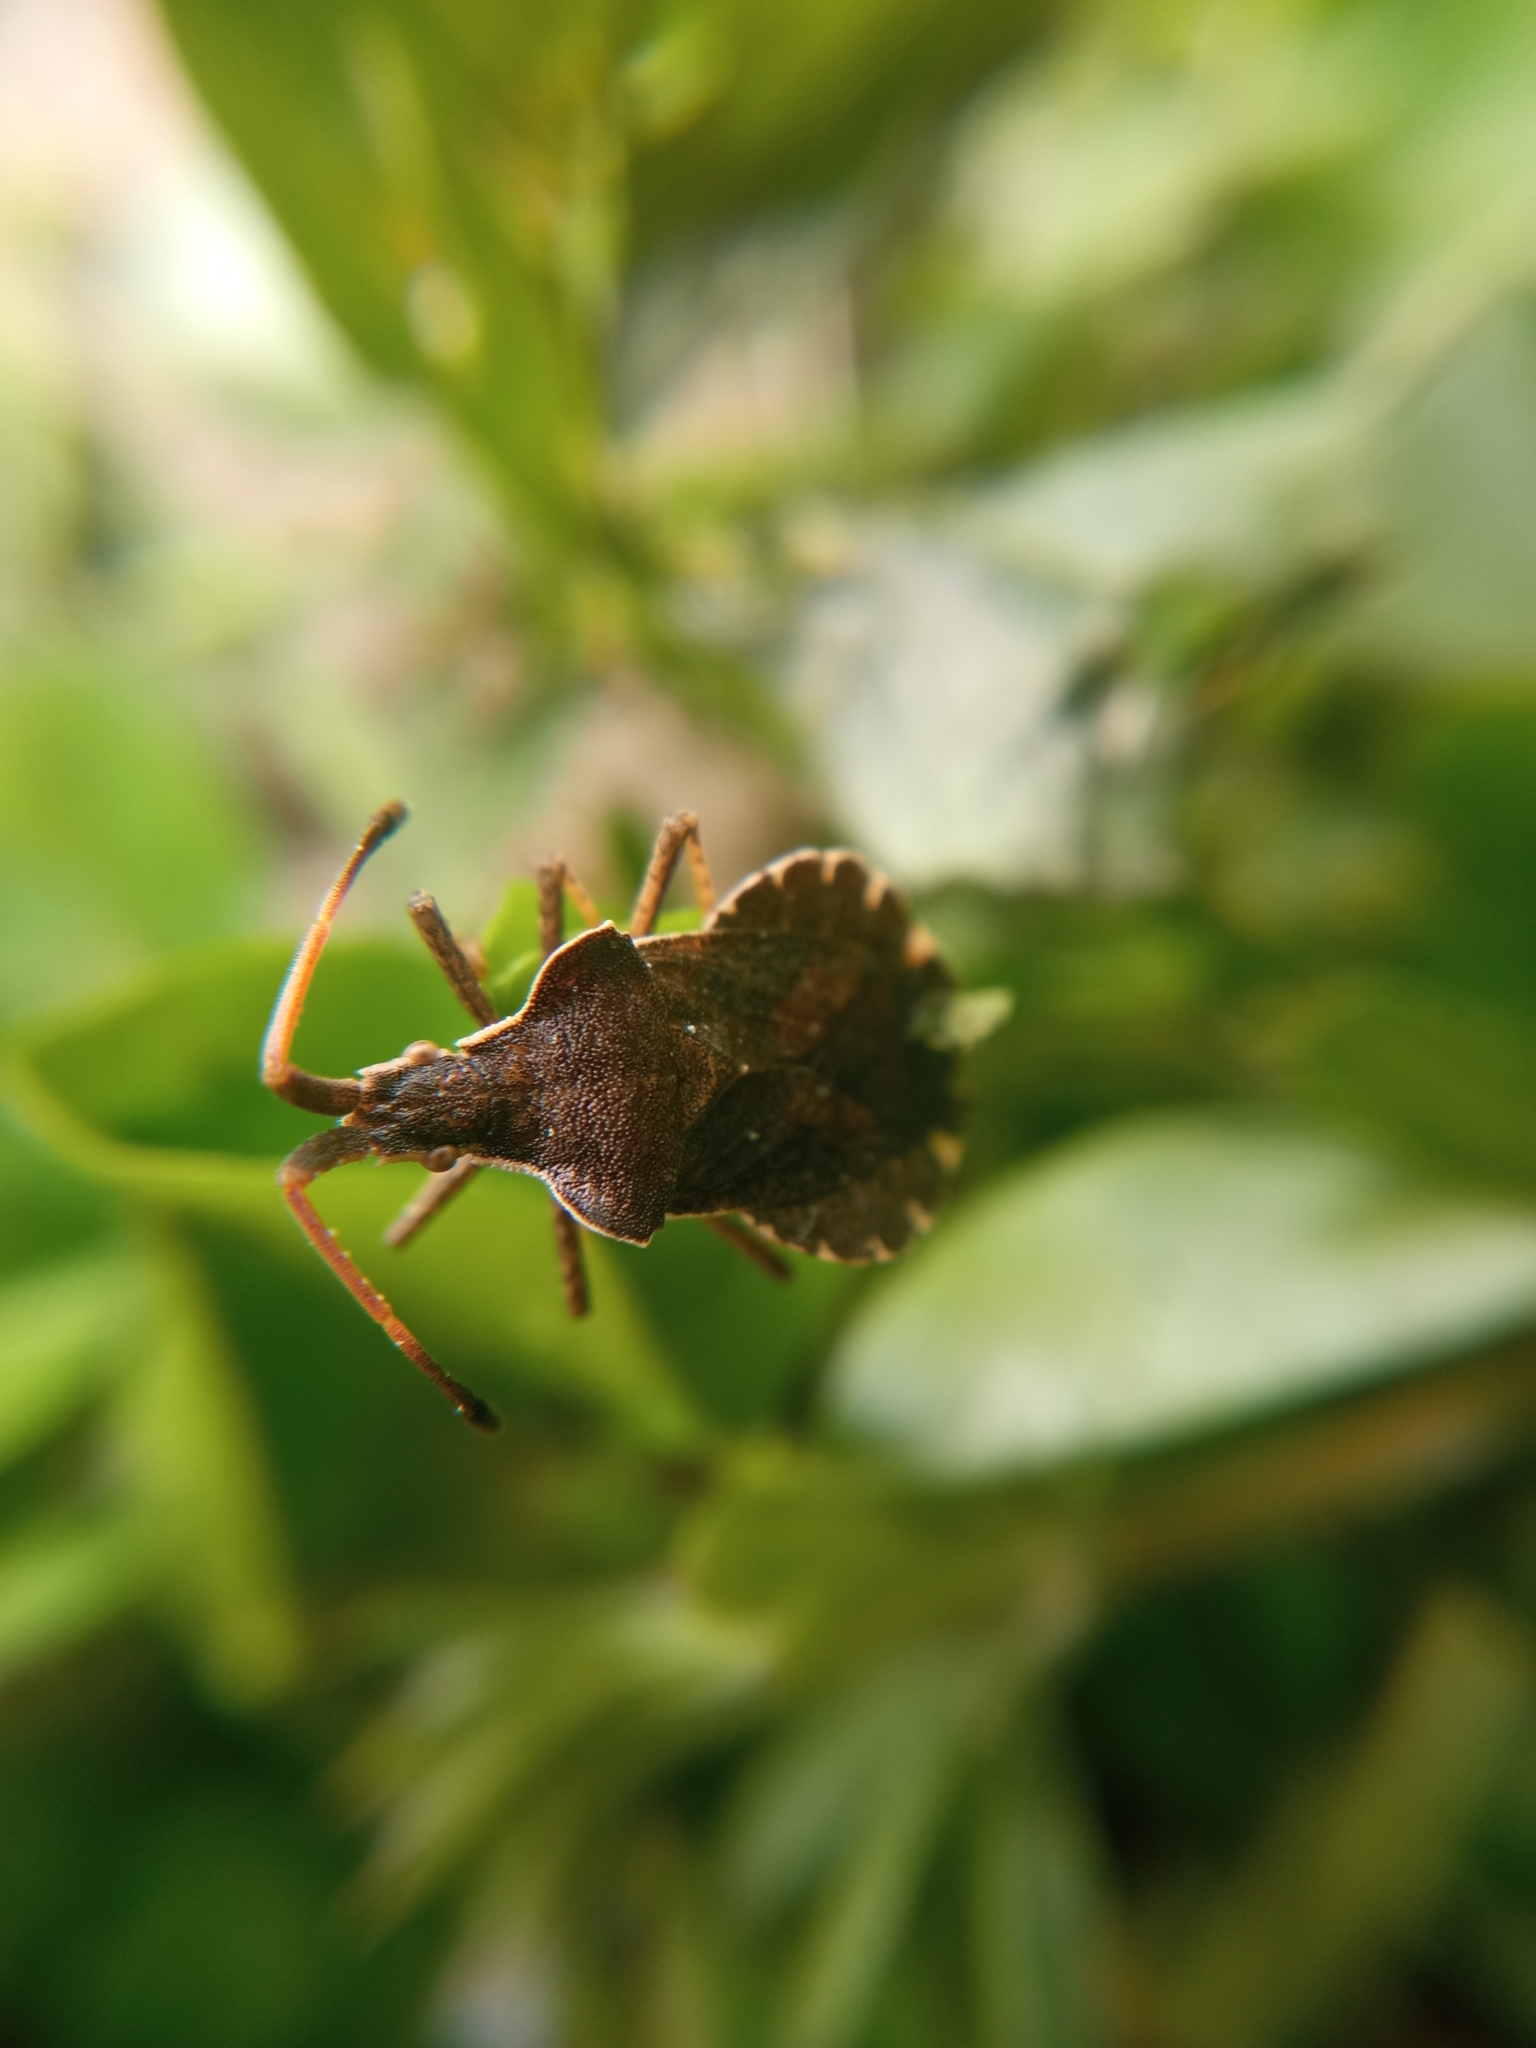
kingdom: Animalia
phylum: Arthropoda
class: Insecta
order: Hemiptera
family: Coreidae
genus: Enoplops
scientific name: Enoplops scapha
